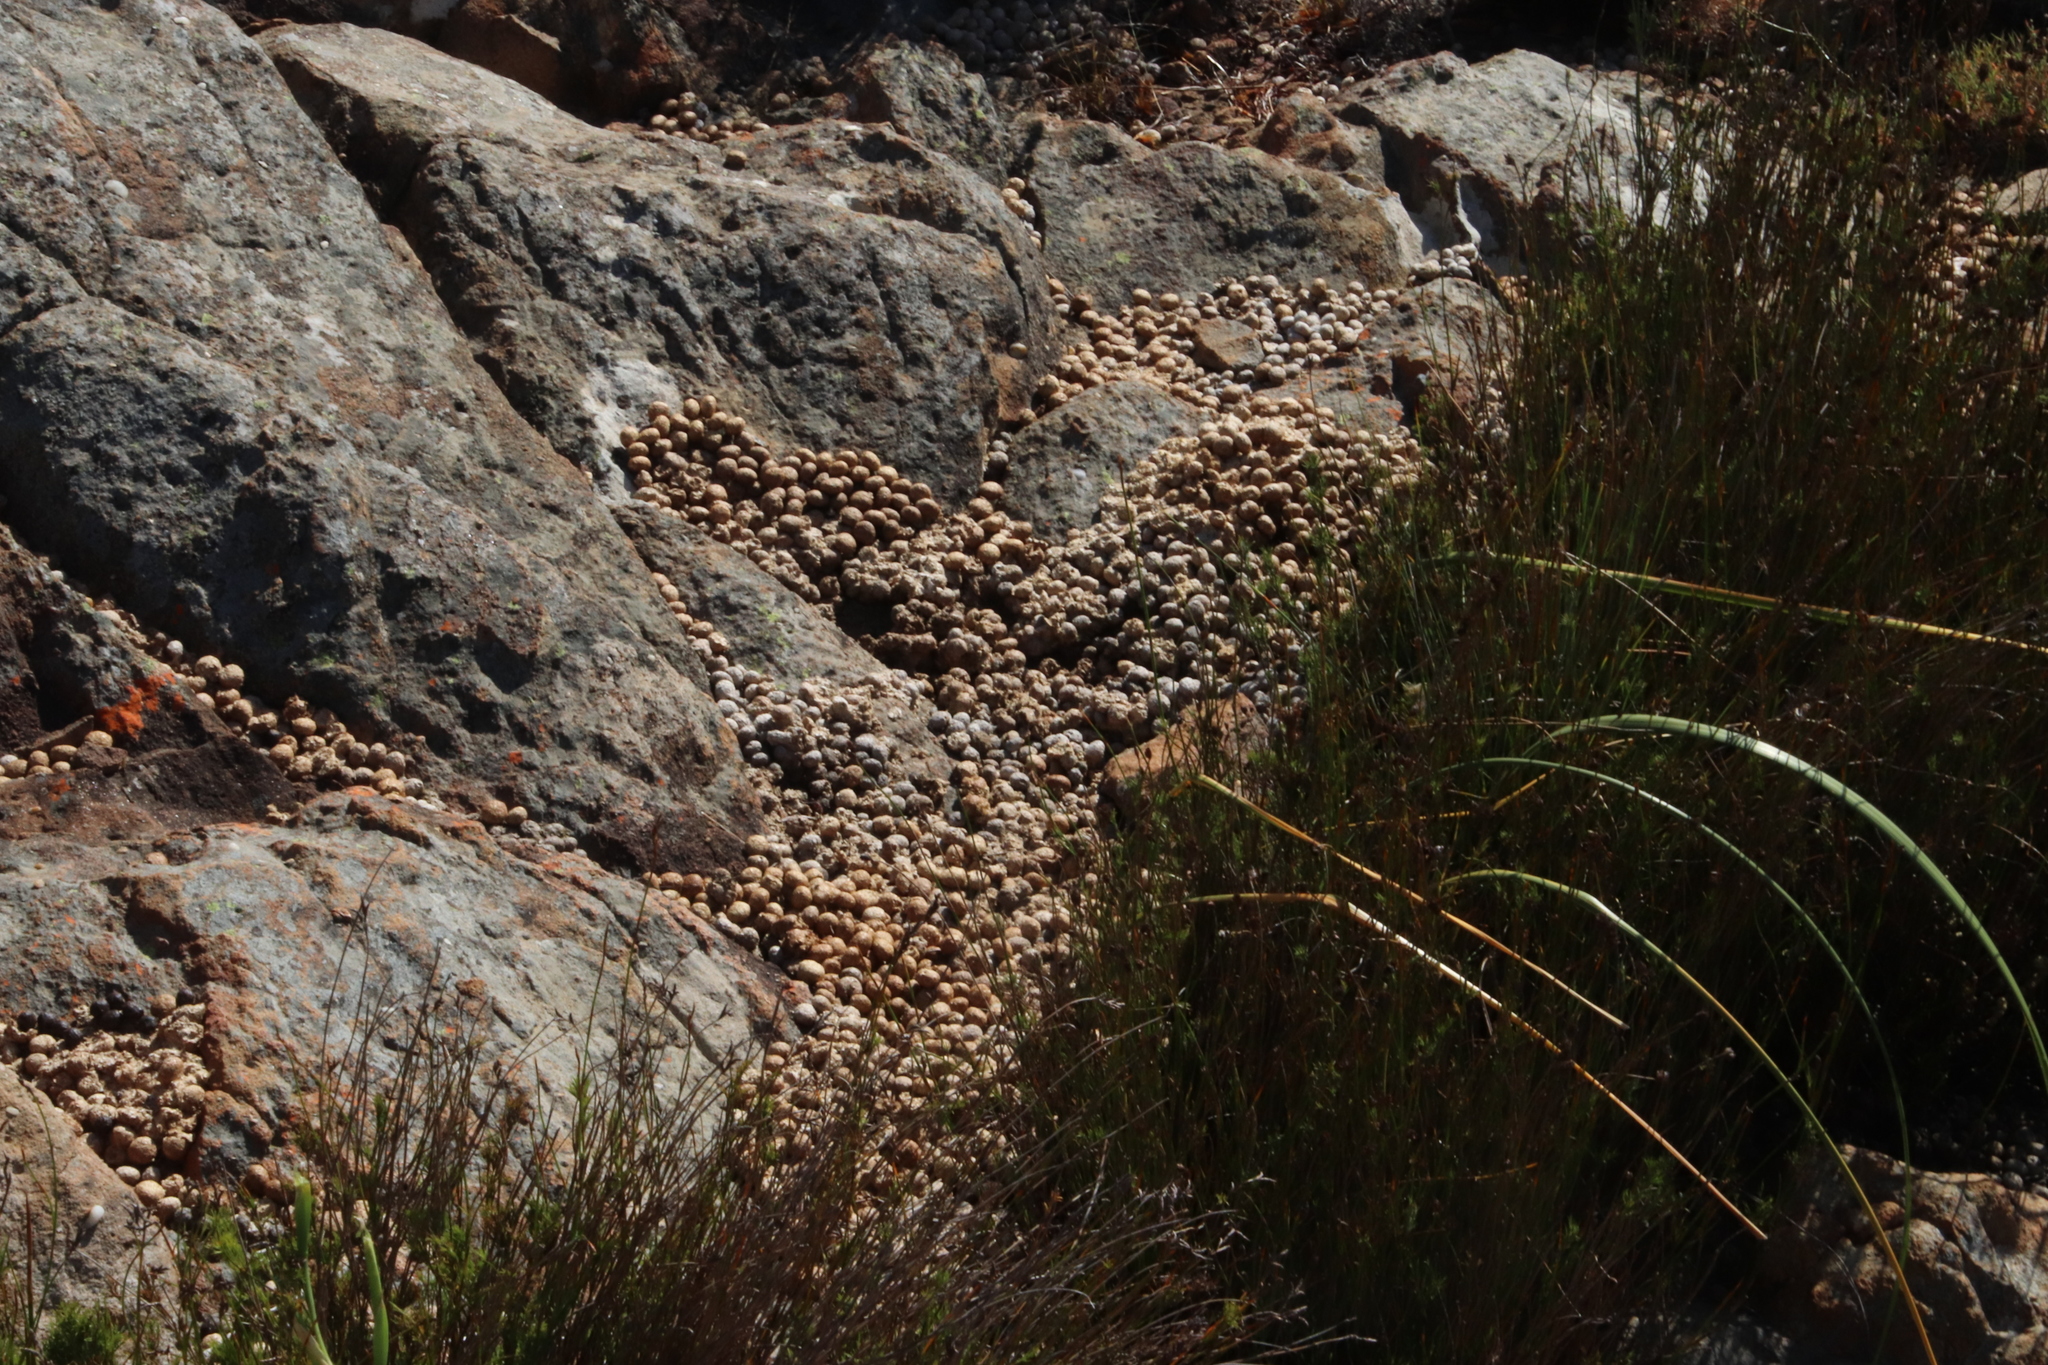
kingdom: Animalia
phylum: Chordata
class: Mammalia
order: Lagomorpha
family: Leporidae
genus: Pronolagus
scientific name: Pronolagus saundersiae
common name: Hewitt's red rock hare
